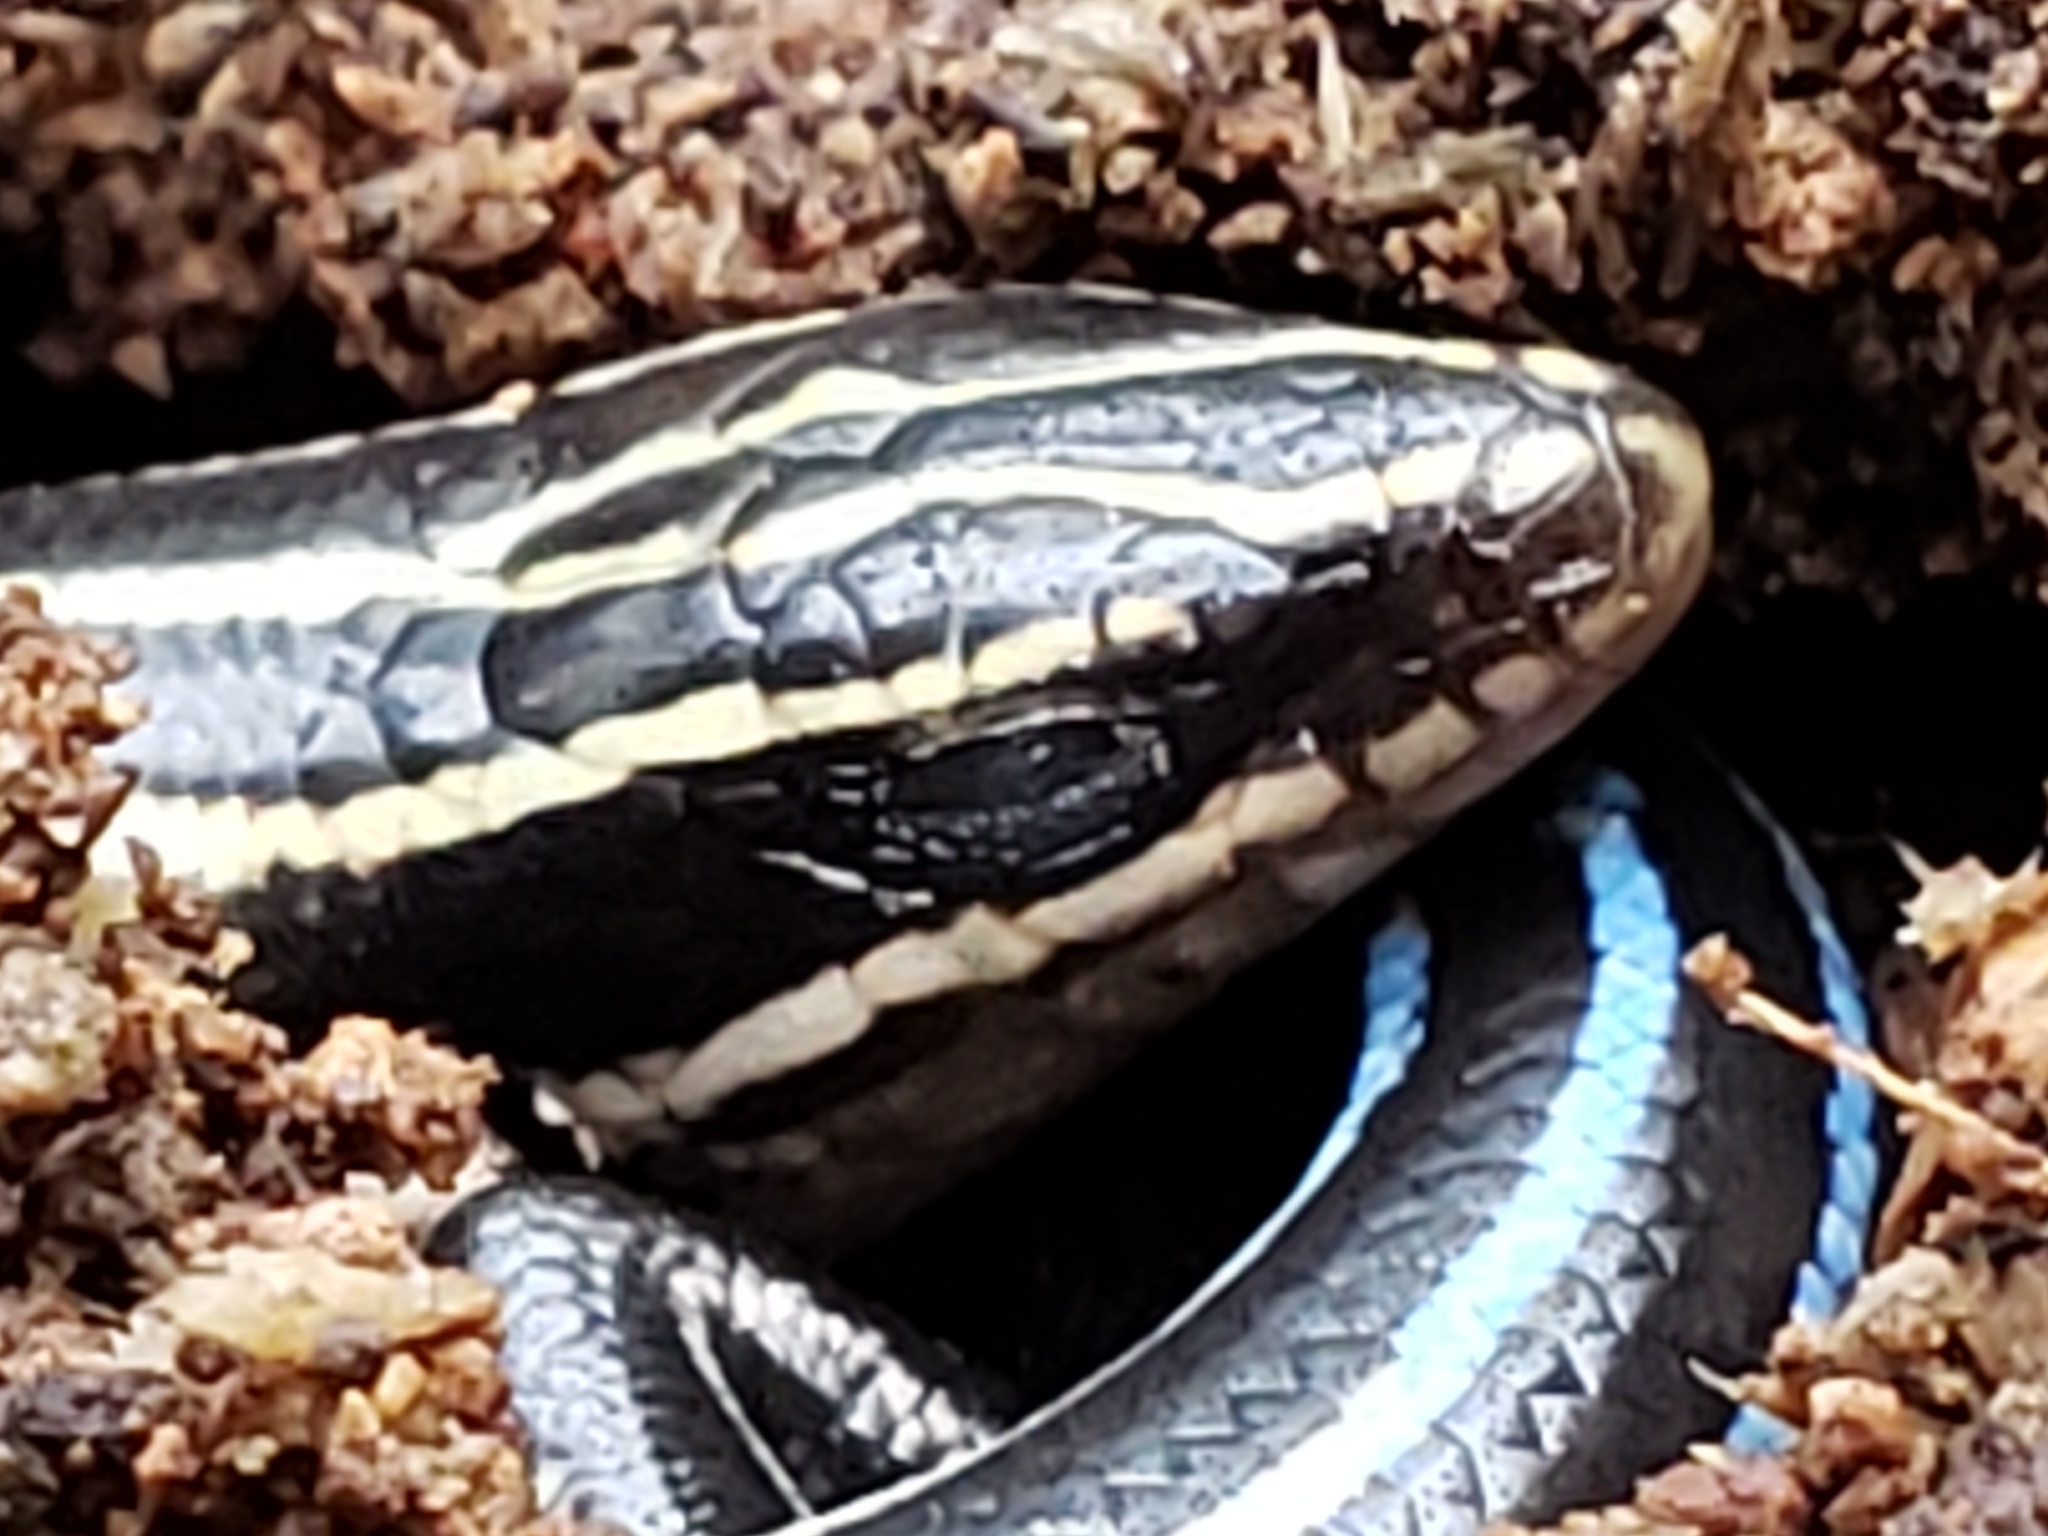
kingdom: Animalia
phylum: Chordata
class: Squamata
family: Scincidae
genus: Plestiodon
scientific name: Plestiodon fasciatus
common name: Five-lined skink
